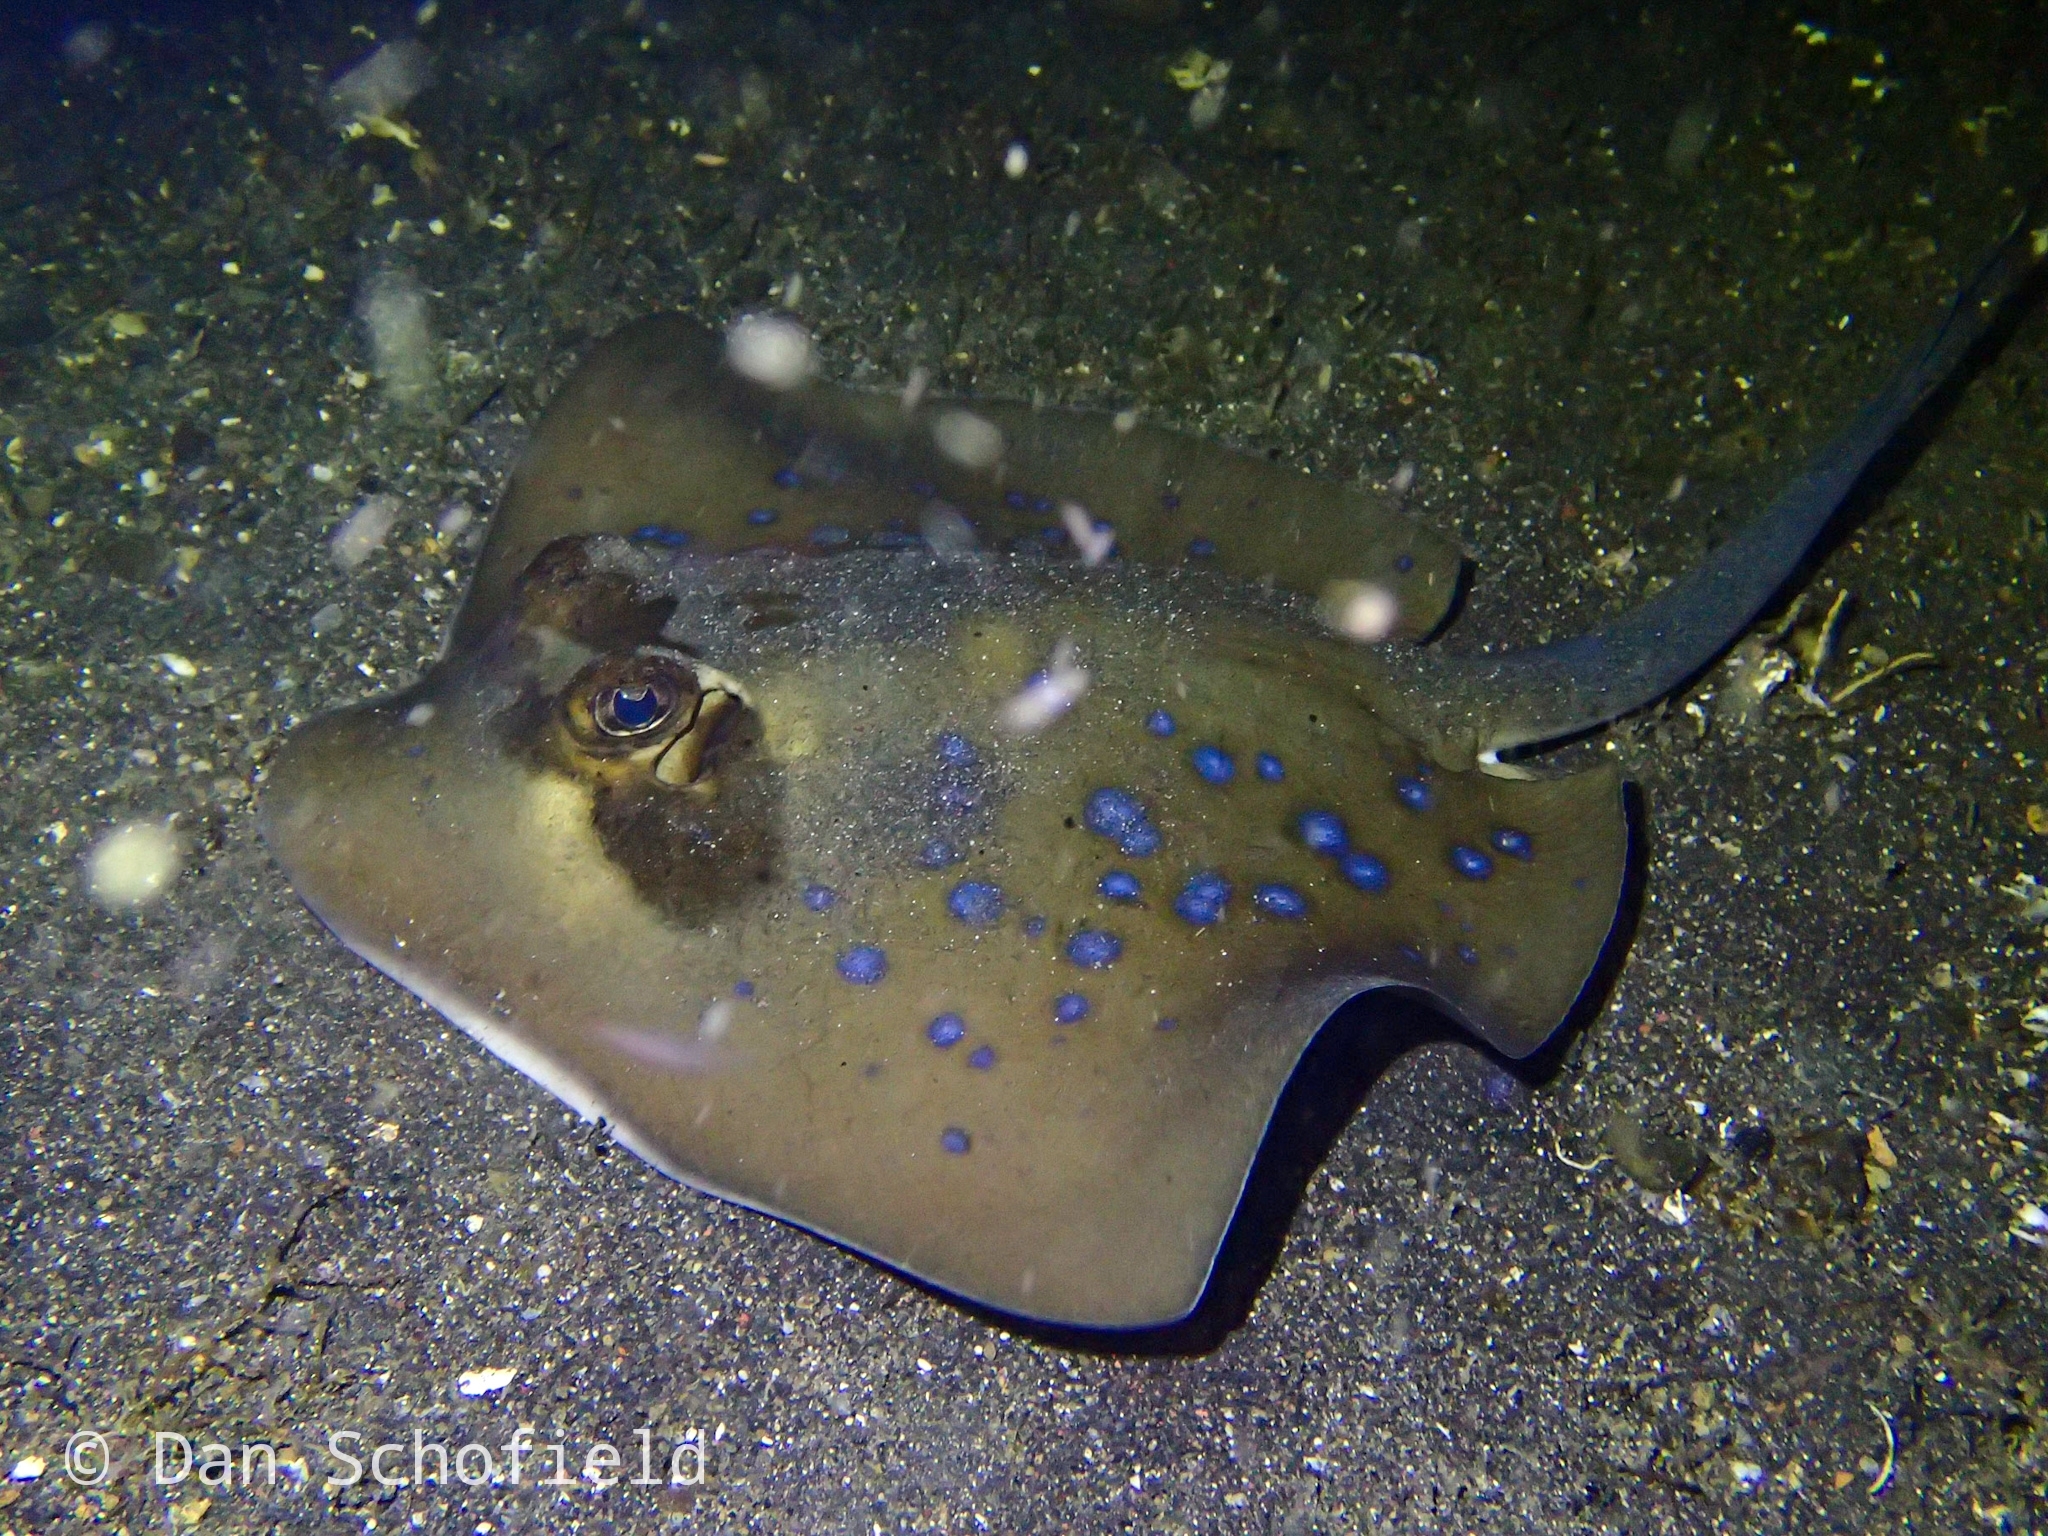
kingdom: Animalia
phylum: Chordata
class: Elasmobranchii
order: Myliobatiformes
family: Dasyatidae
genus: Neotrygon
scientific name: Neotrygon orientale
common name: Oriental bluespotted maskray
